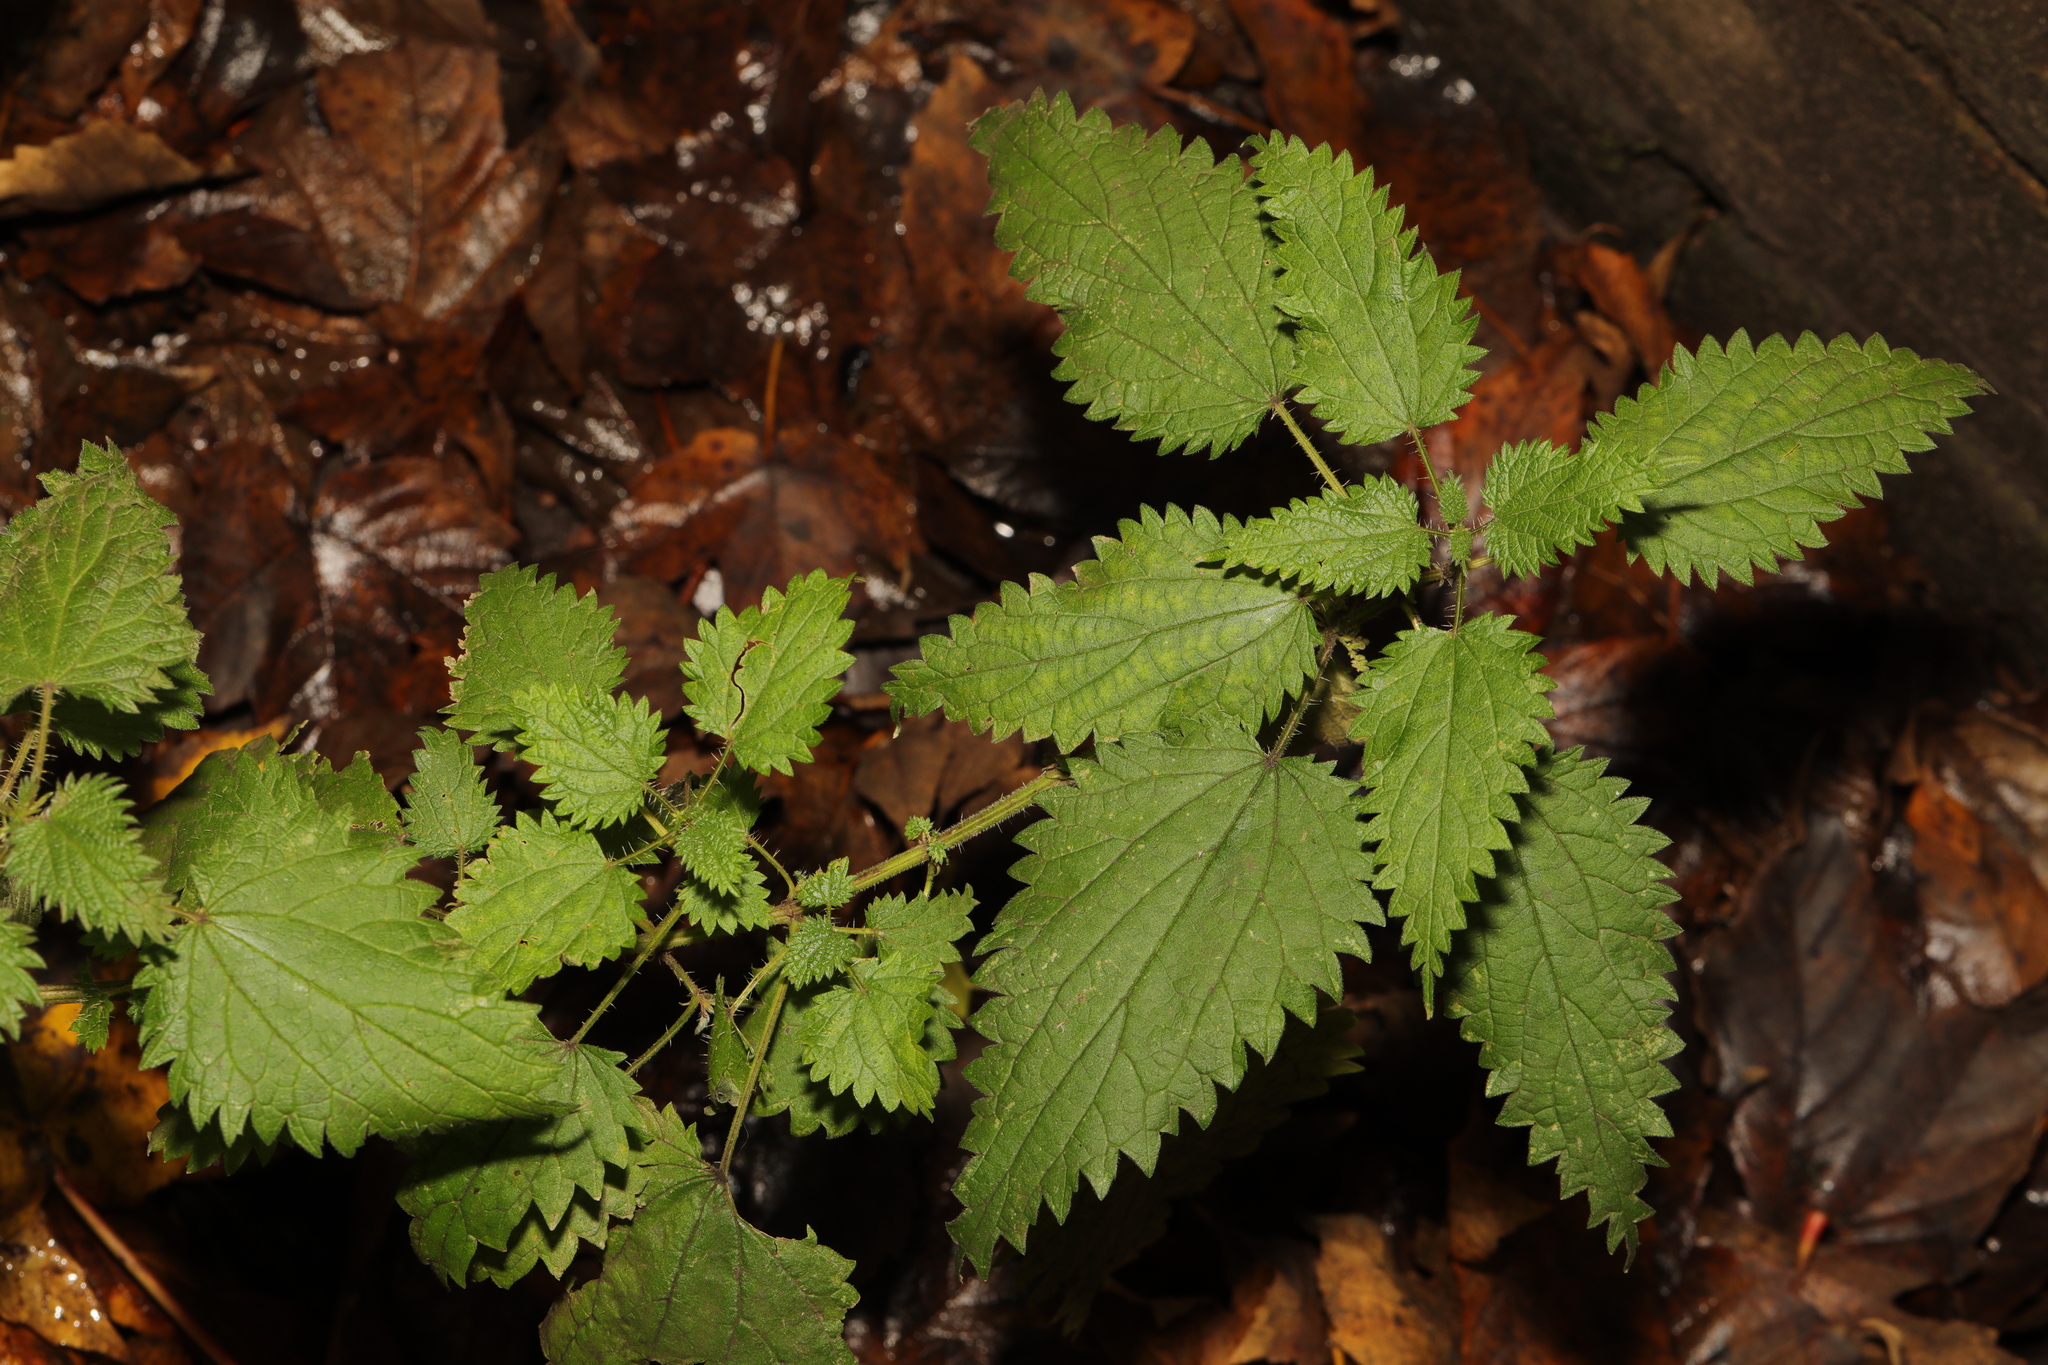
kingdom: Plantae
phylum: Tracheophyta
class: Magnoliopsida
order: Rosales
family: Urticaceae
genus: Urtica
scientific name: Urtica dioica
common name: Common nettle
